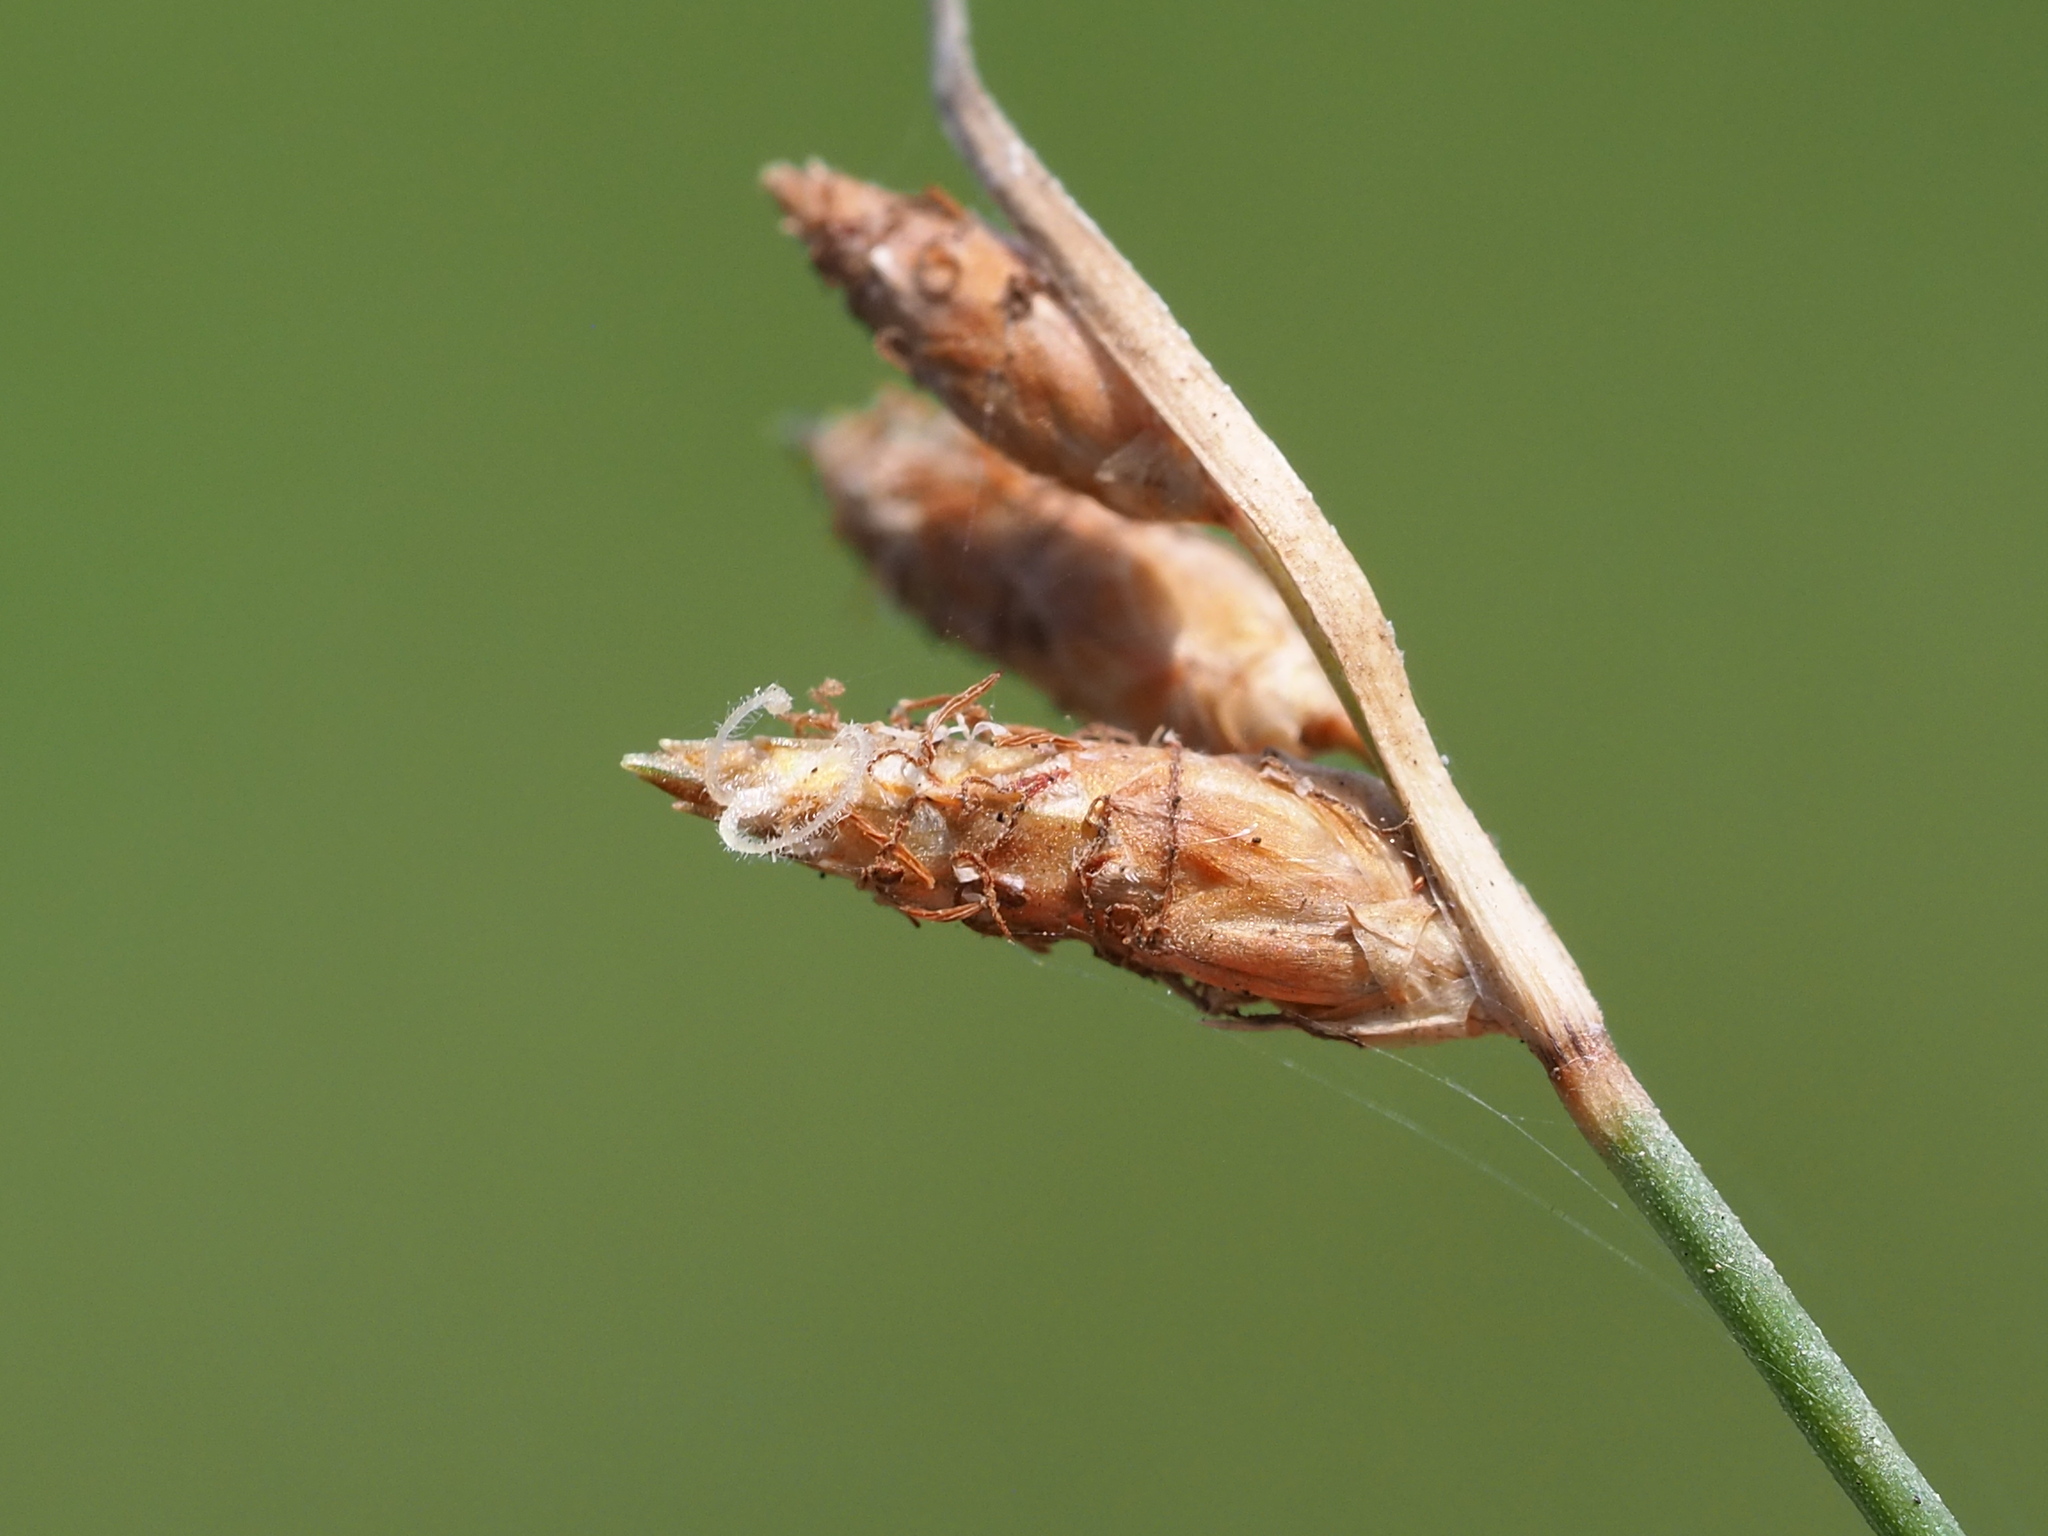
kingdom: Plantae
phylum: Tracheophyta
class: Liliopsida
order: Poales
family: Cyperaceae
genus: Fimbristylis
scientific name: Fimbristylis sieboldii
